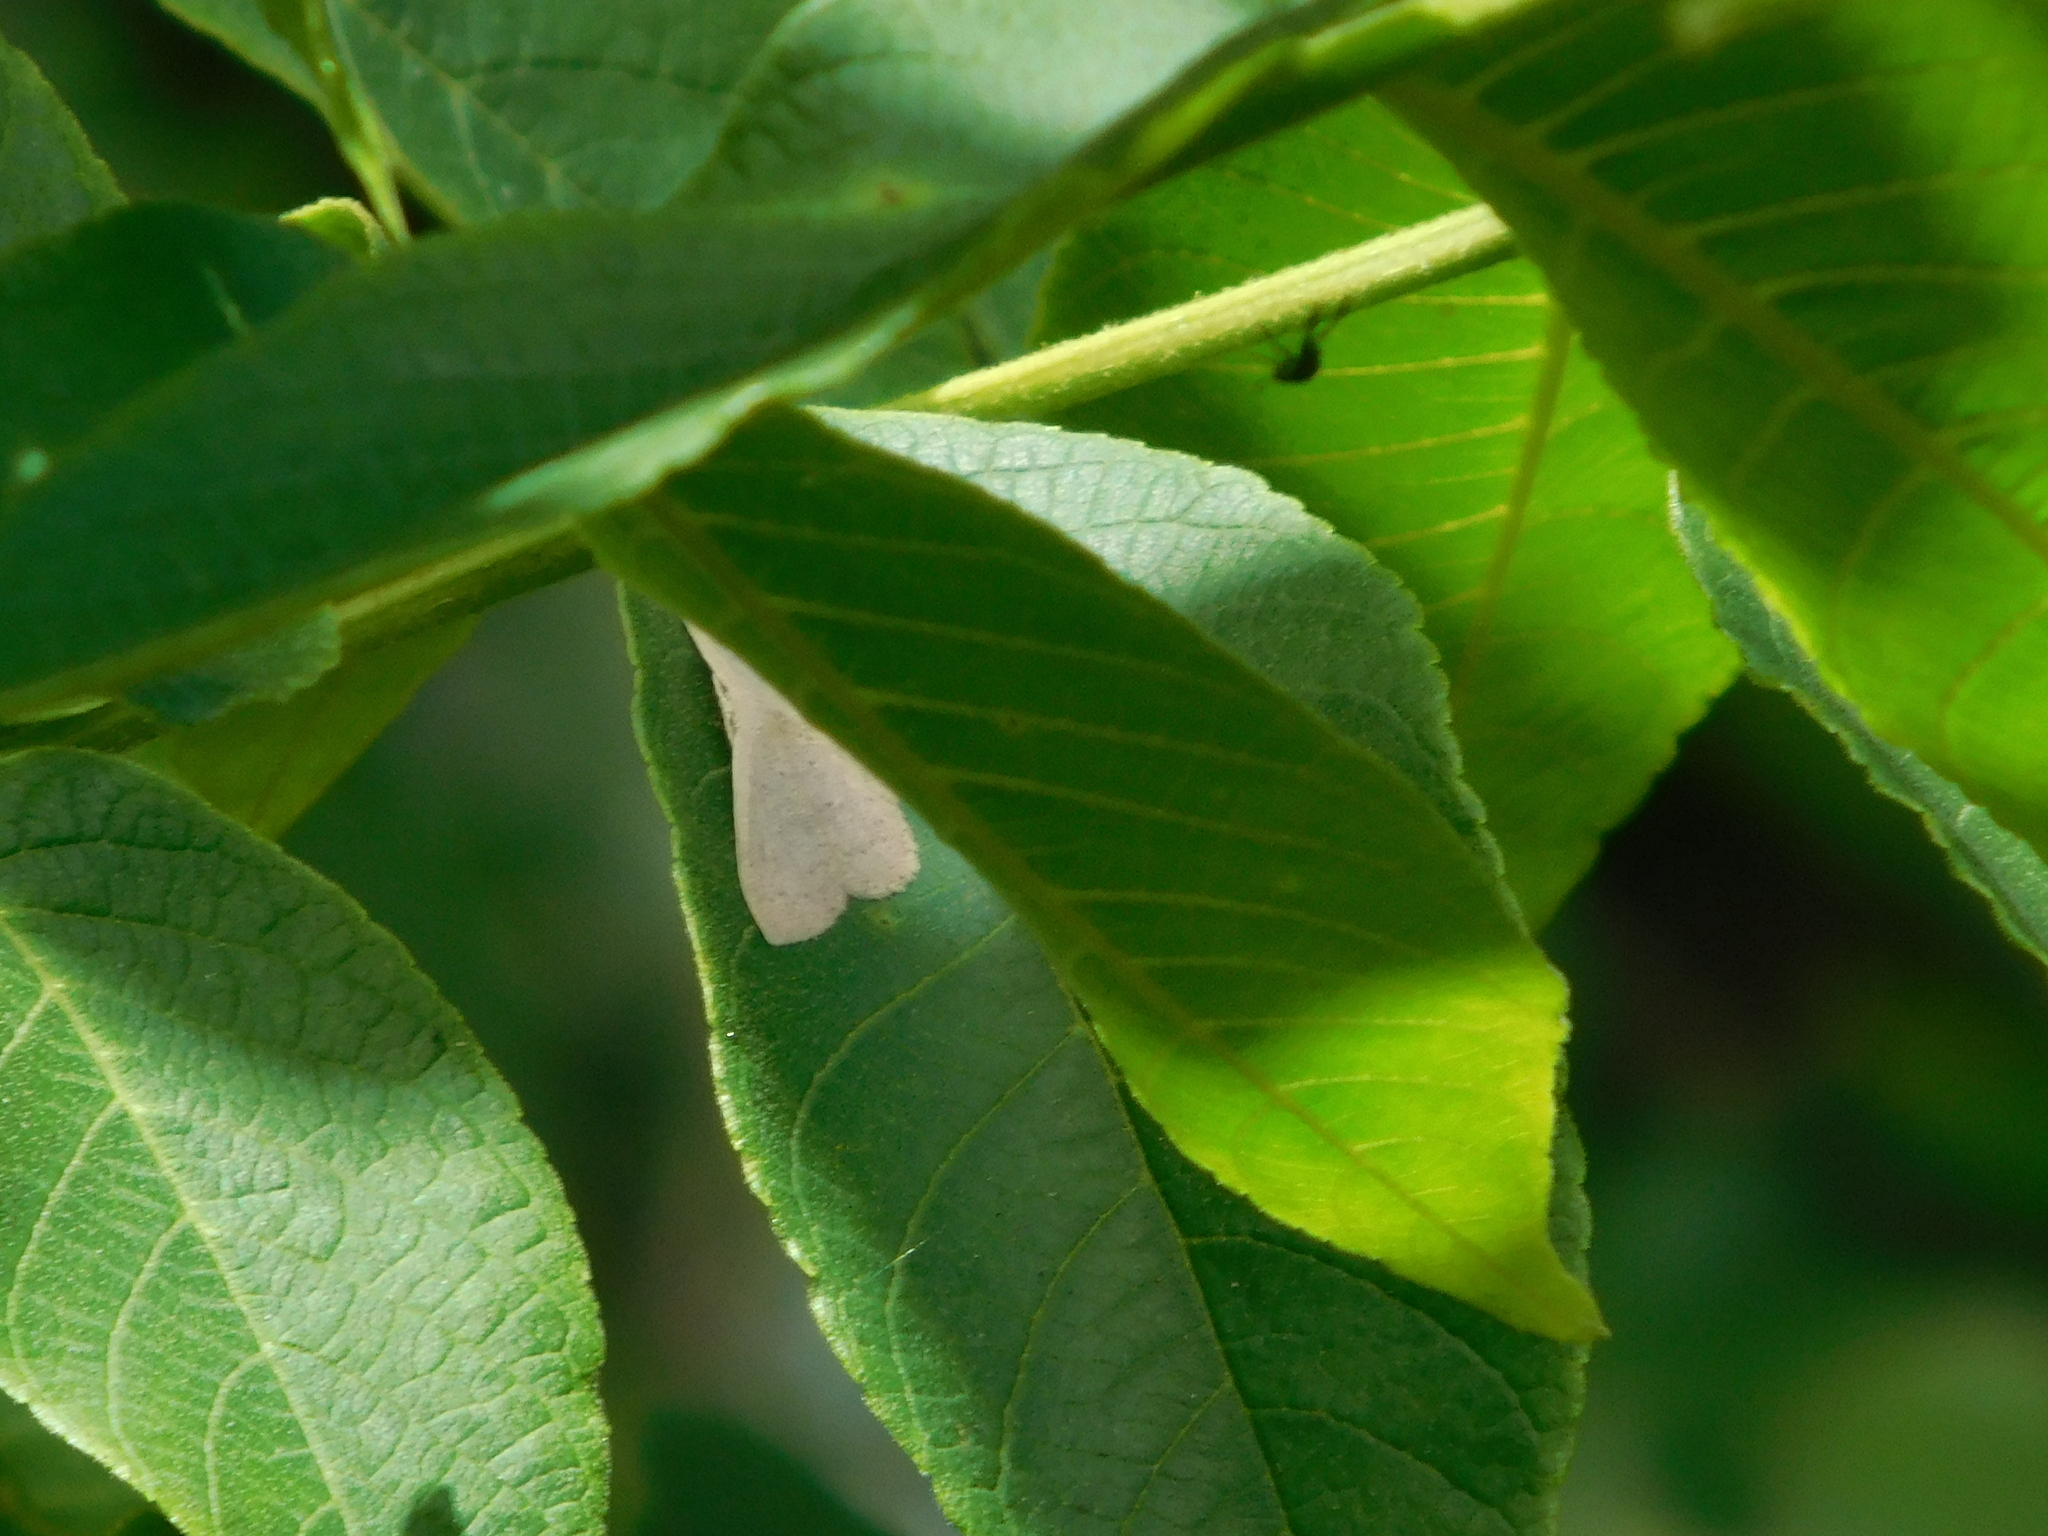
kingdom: Animalia
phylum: Arthropoda
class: Insecta
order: Lepidoptera
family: Geometridae
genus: Cyclophora
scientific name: Cyclophora obstataria
